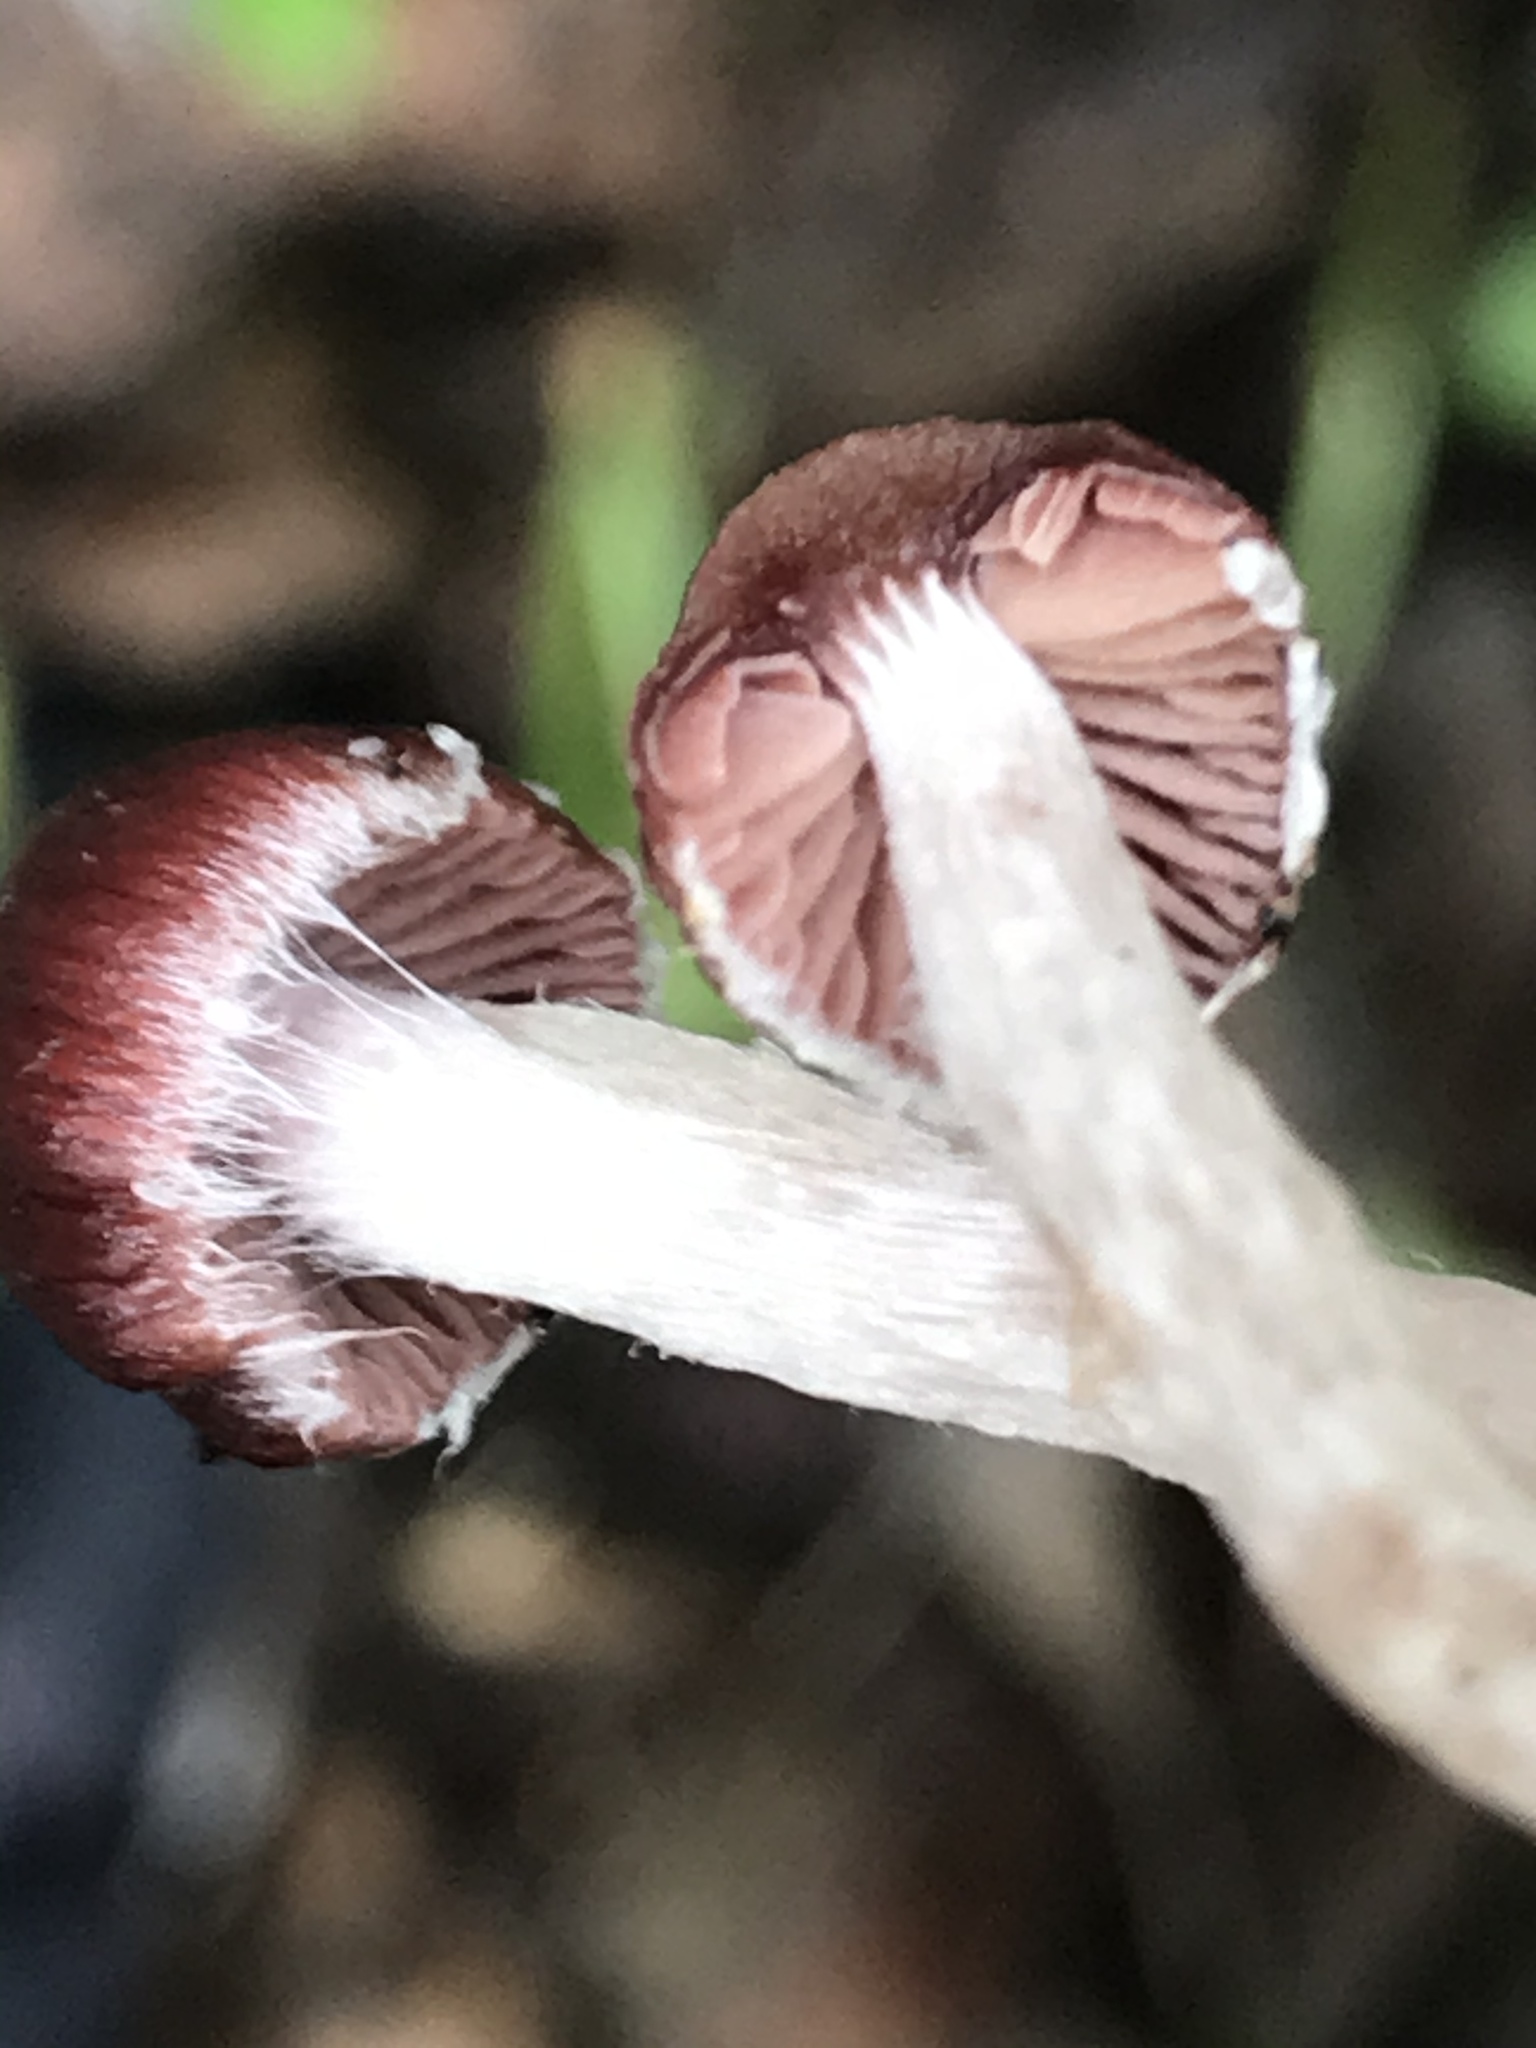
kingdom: Fungi
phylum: Basidiomycota
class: Agaricomycetes
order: Agaricales
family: Psathyrellaceae
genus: Psathyrella
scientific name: Psathyrella bipellis
